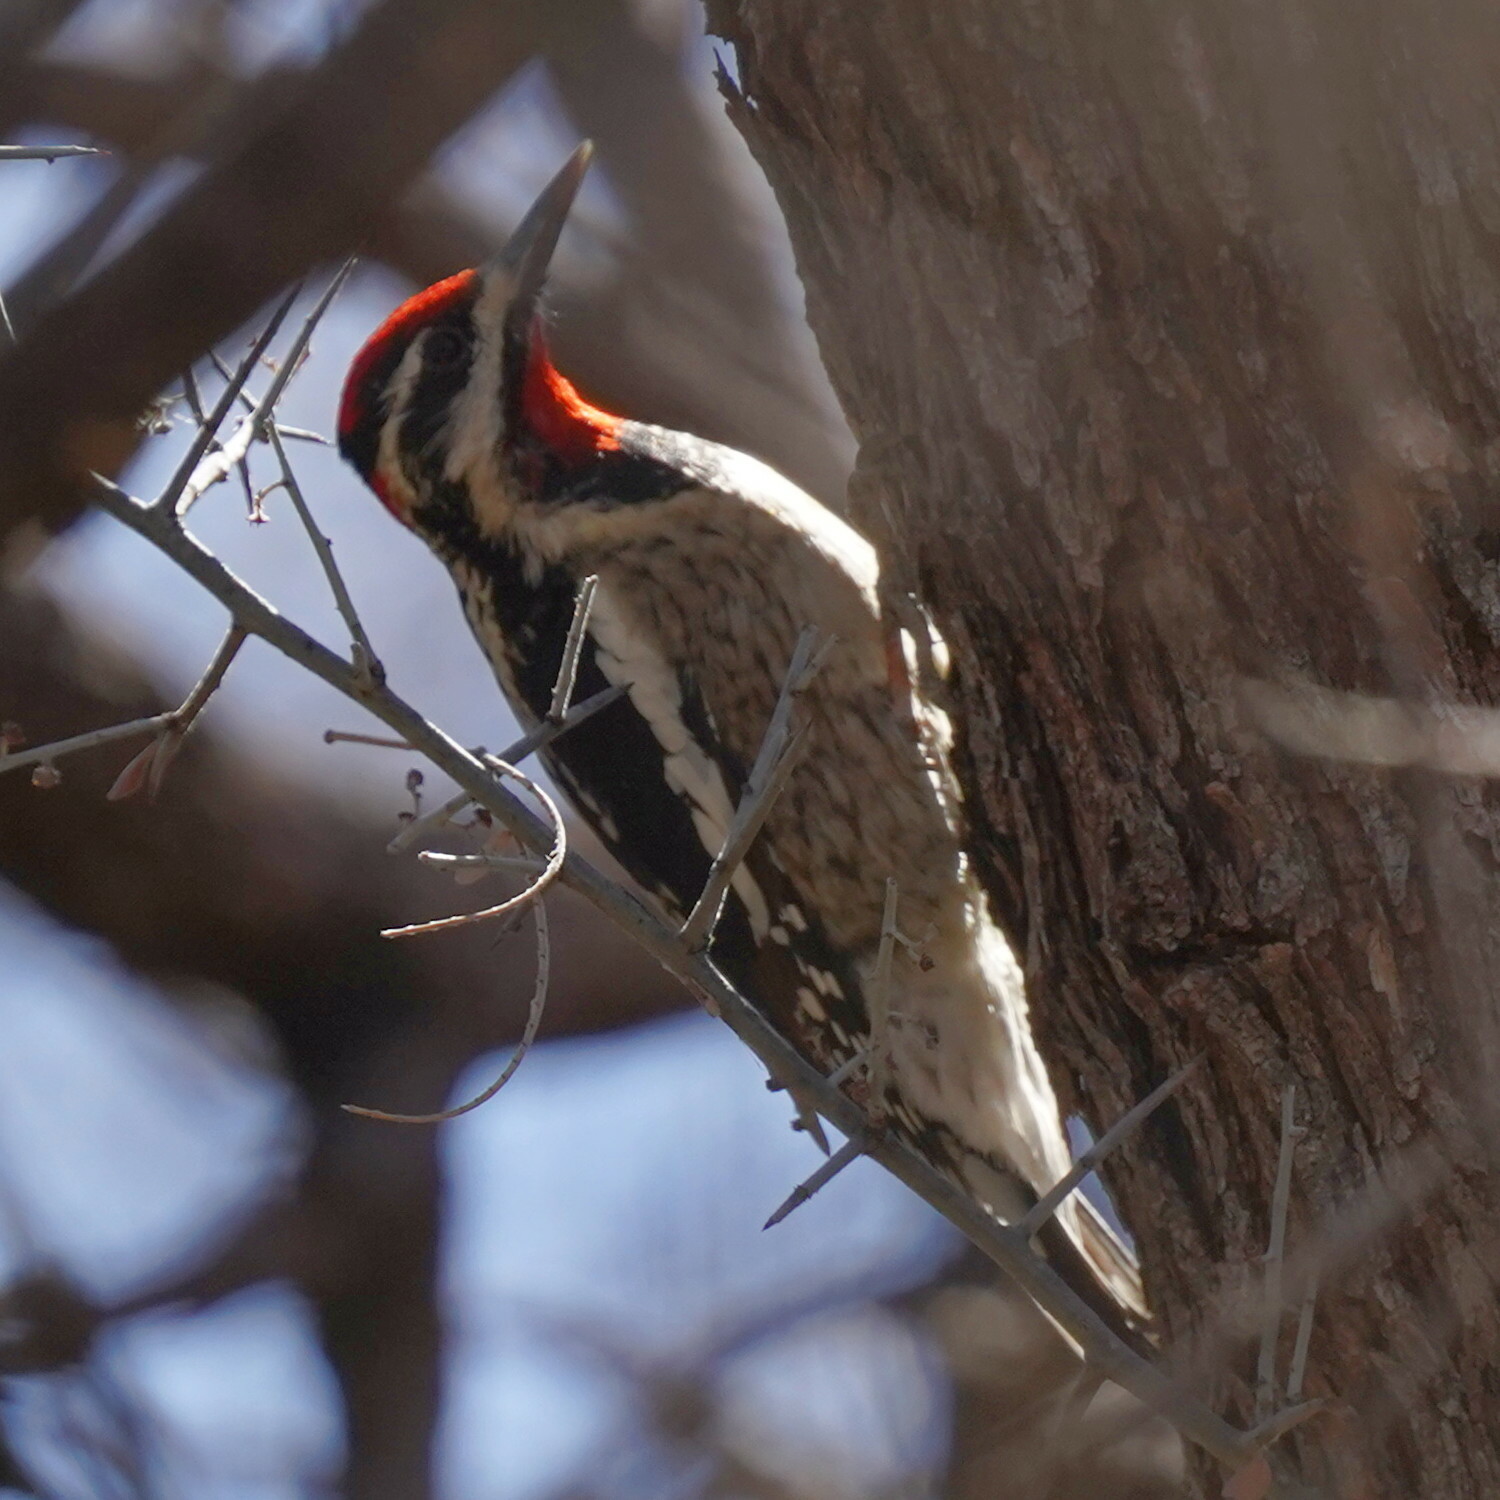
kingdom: Animalia
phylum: Chordata
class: Aves
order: Piciformes
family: Picidae
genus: Sphyrapicus
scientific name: Sphyrapicus nuchalis
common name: Red-naped sapsucker
